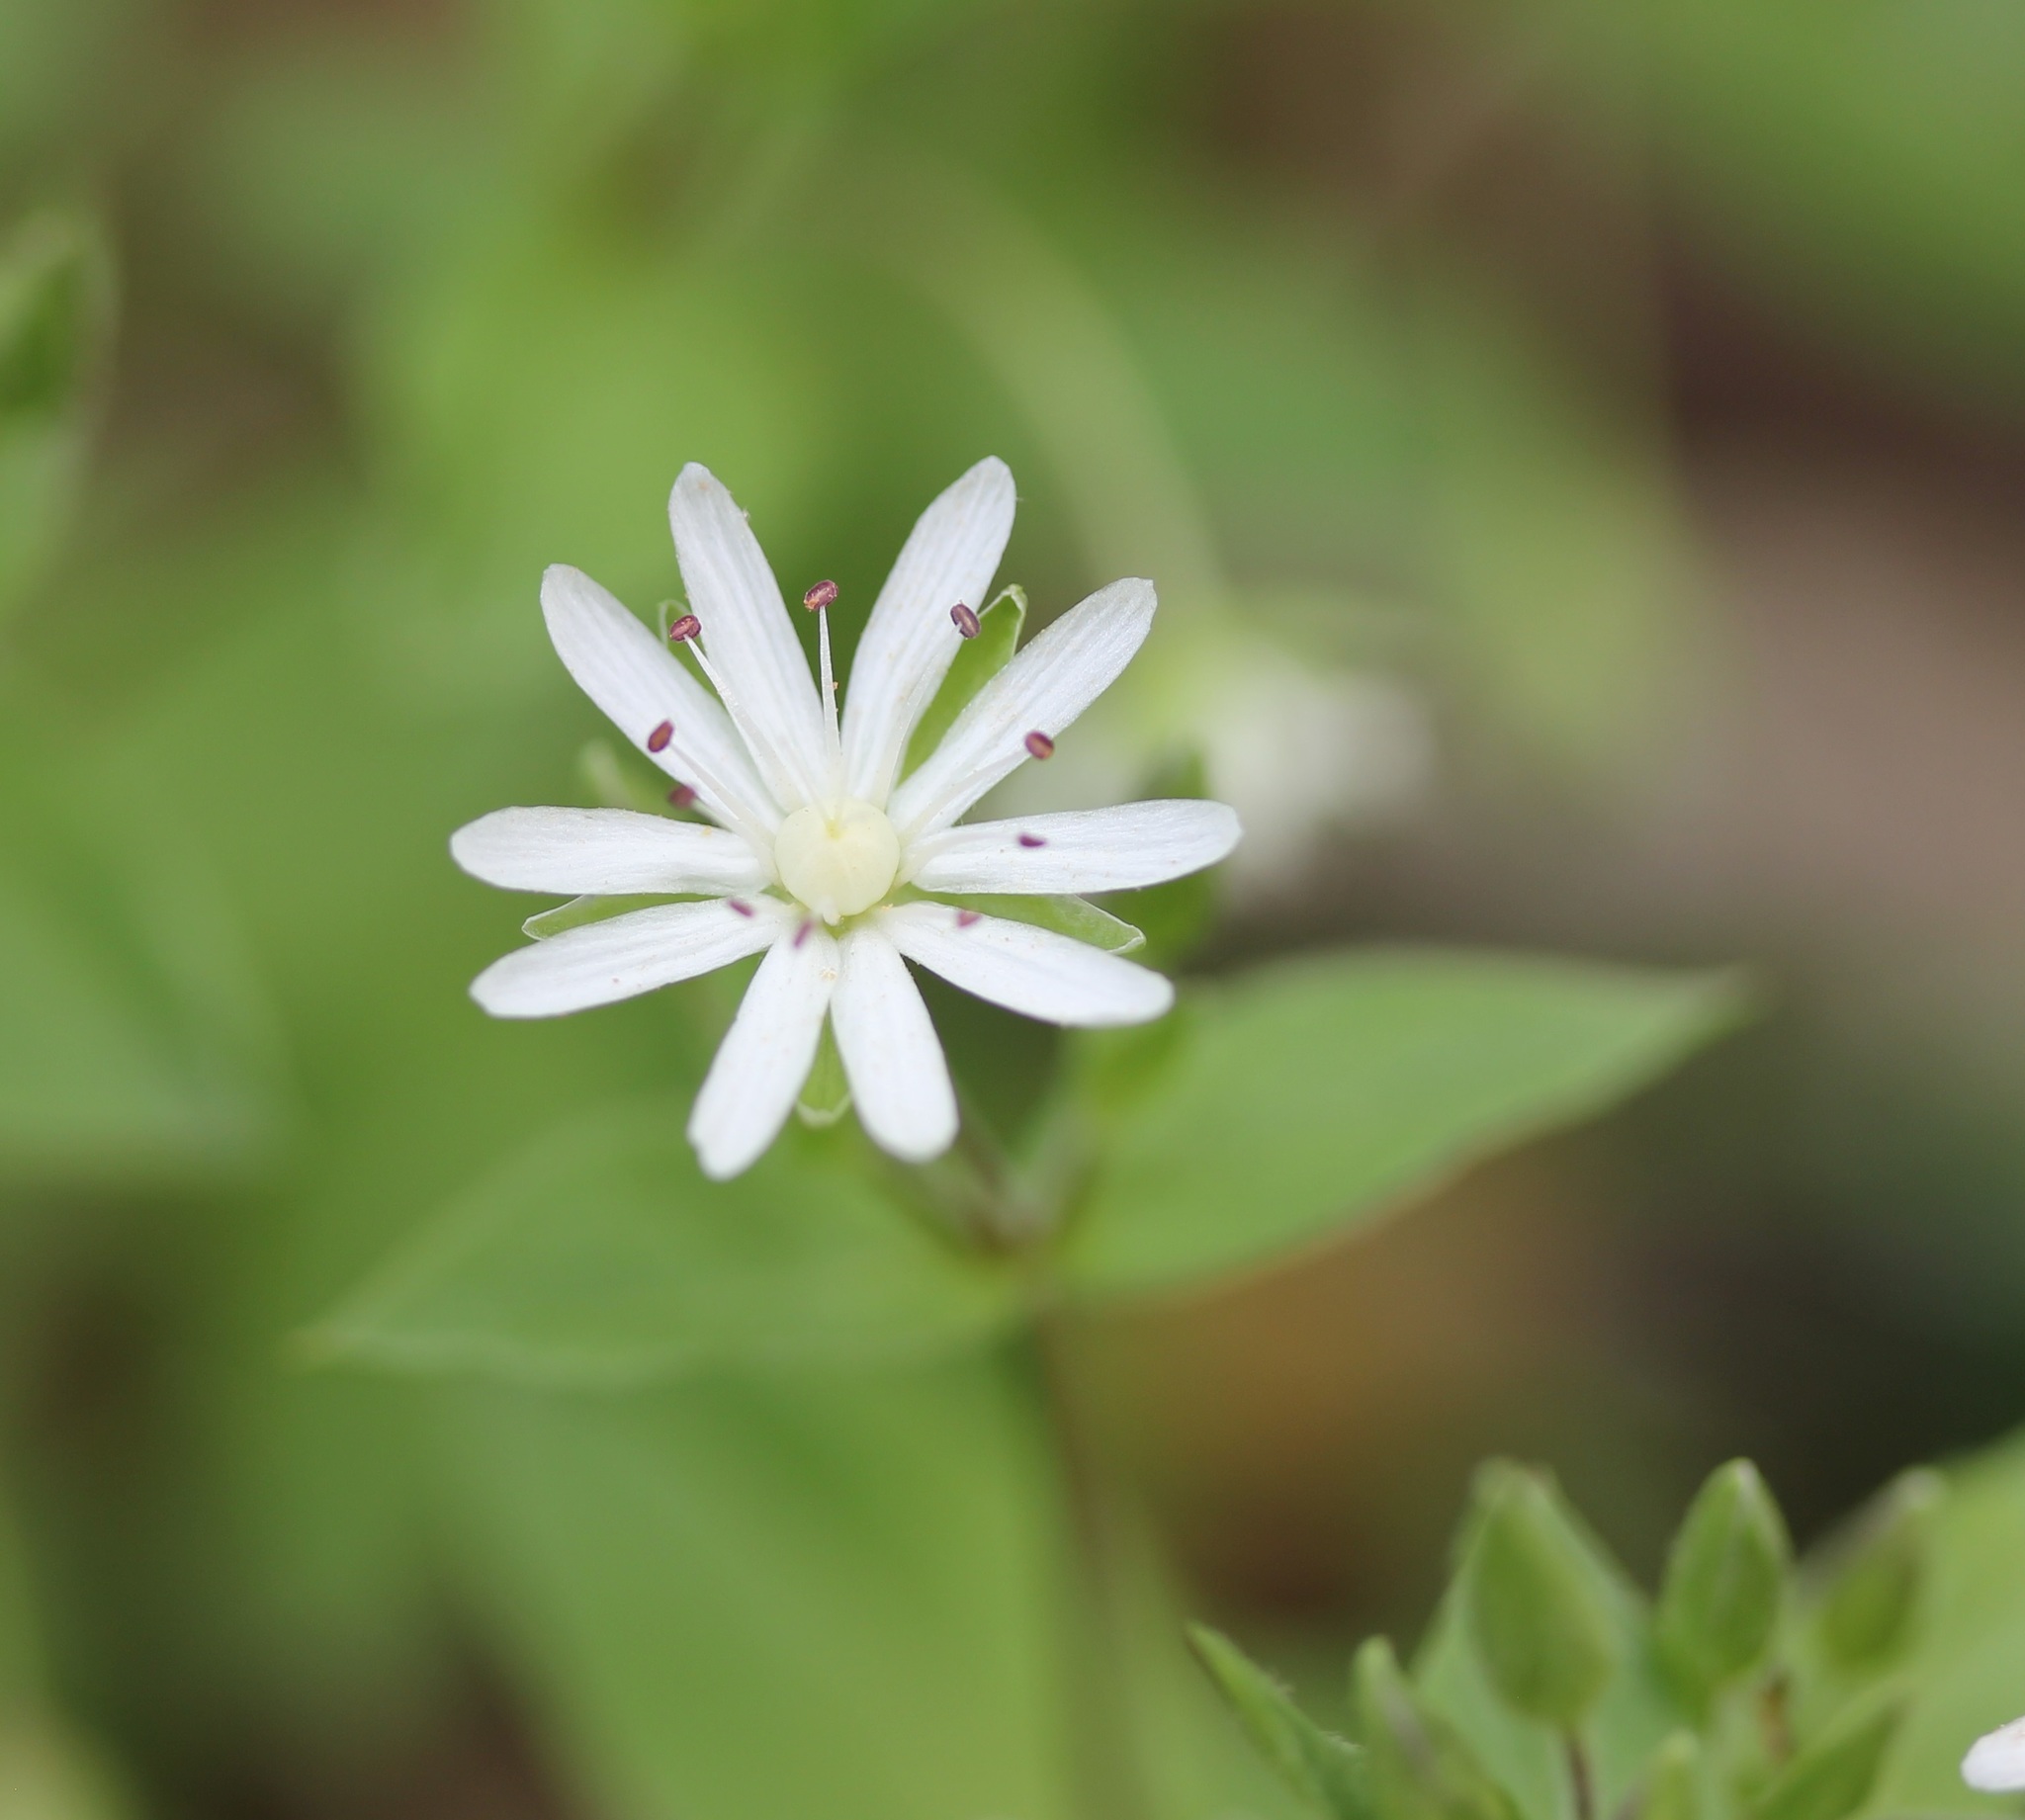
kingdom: Plantae
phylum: Tracheophyta
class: Magnoliopsida
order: Caryophyllales
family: Caryophyllaceae
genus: Stellaria
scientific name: Stellaria pubera
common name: Star chickweed
